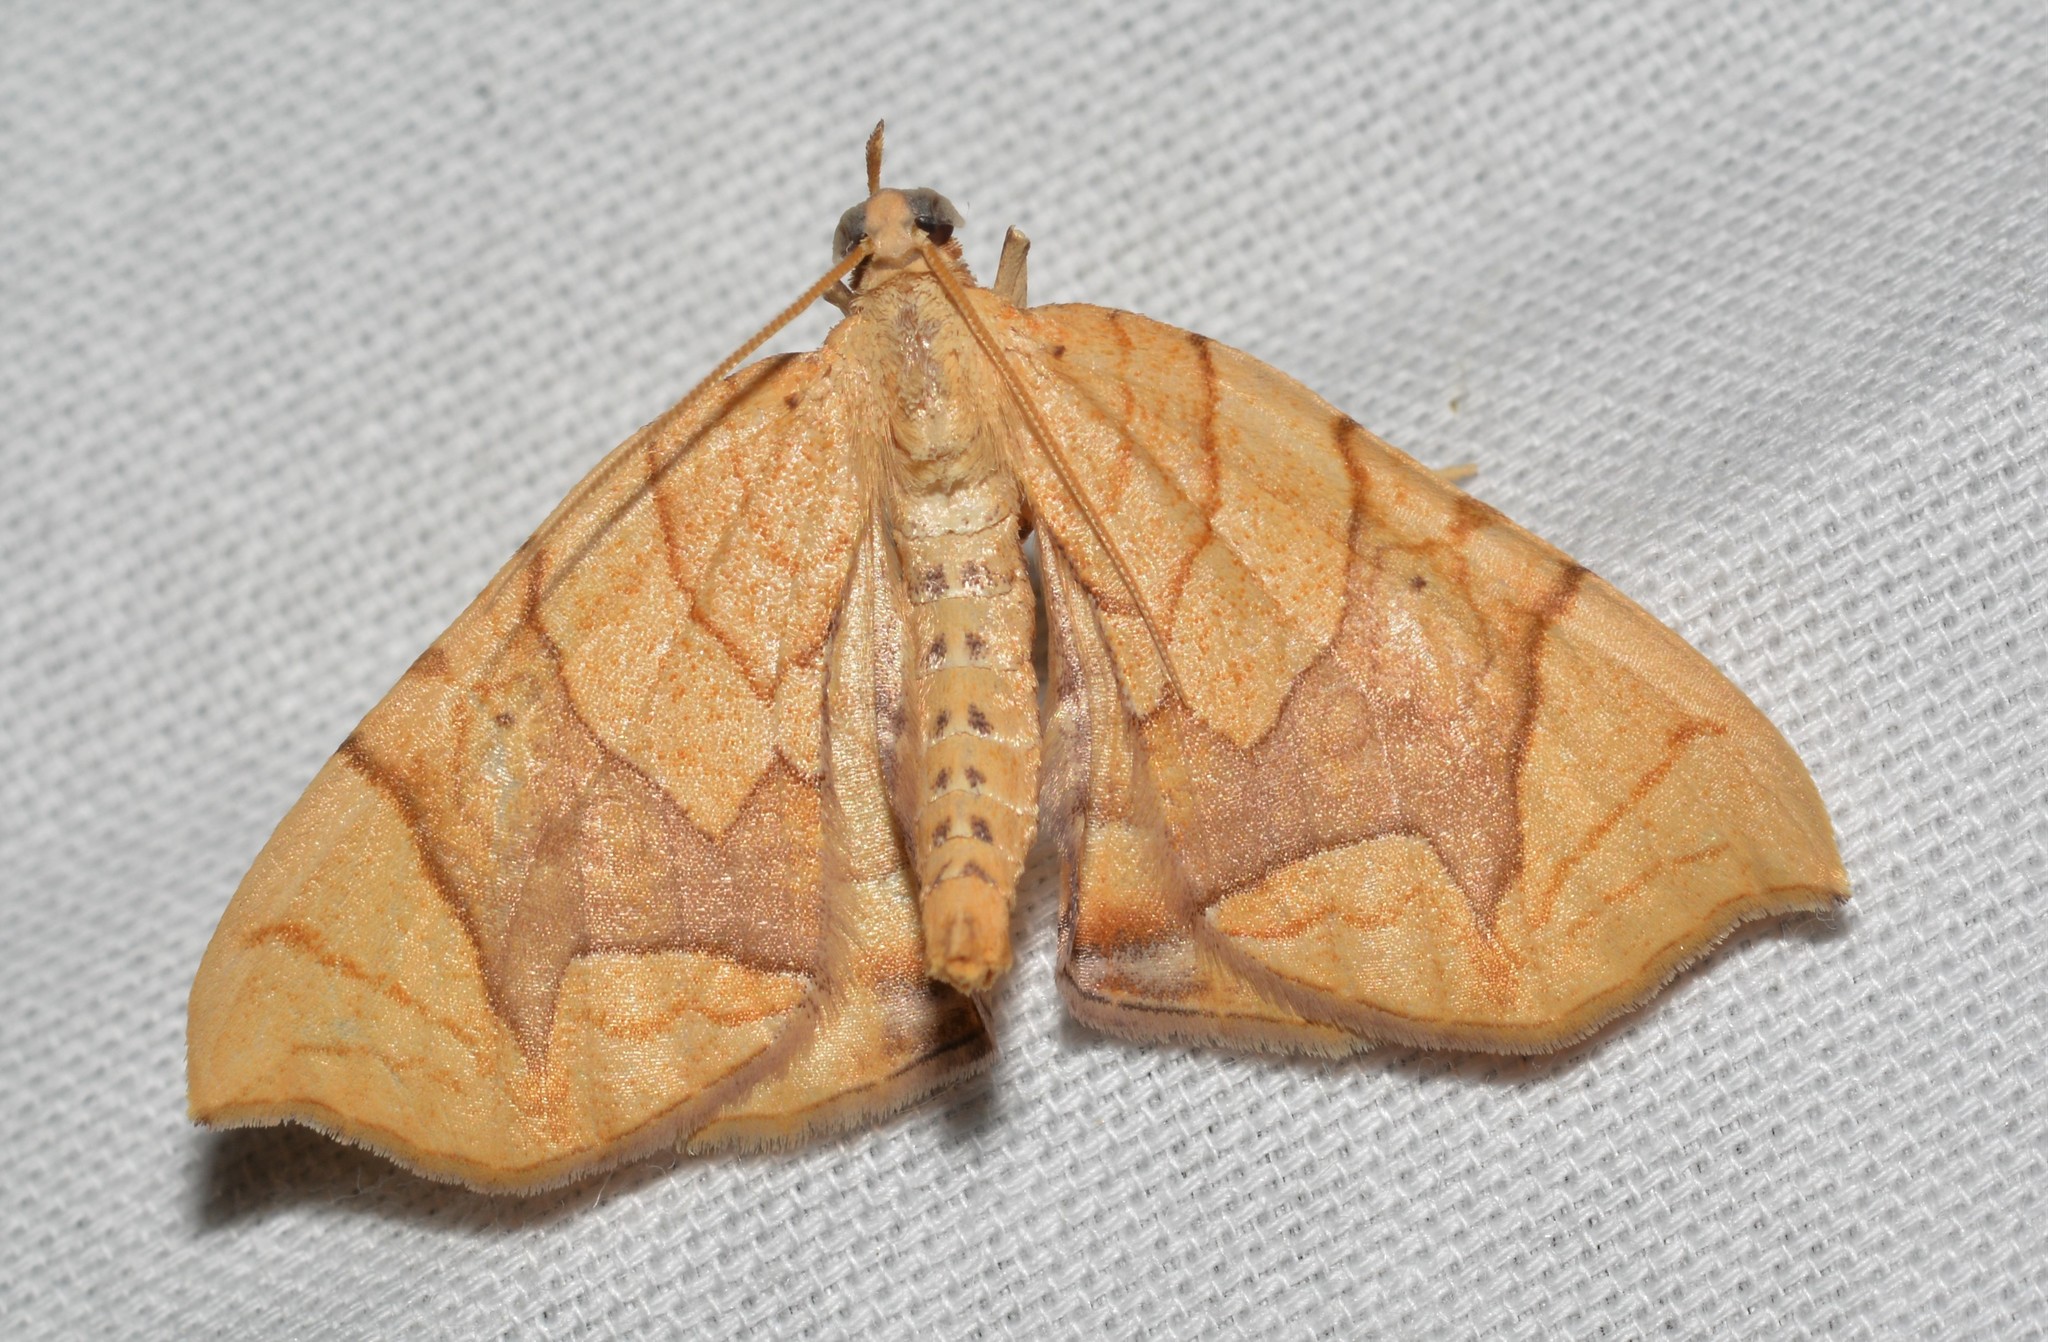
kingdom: Animalia
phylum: Arthropoda
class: Insecta
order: Lepidoptera
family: Geometridae
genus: Eulithis
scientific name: Eulithis
